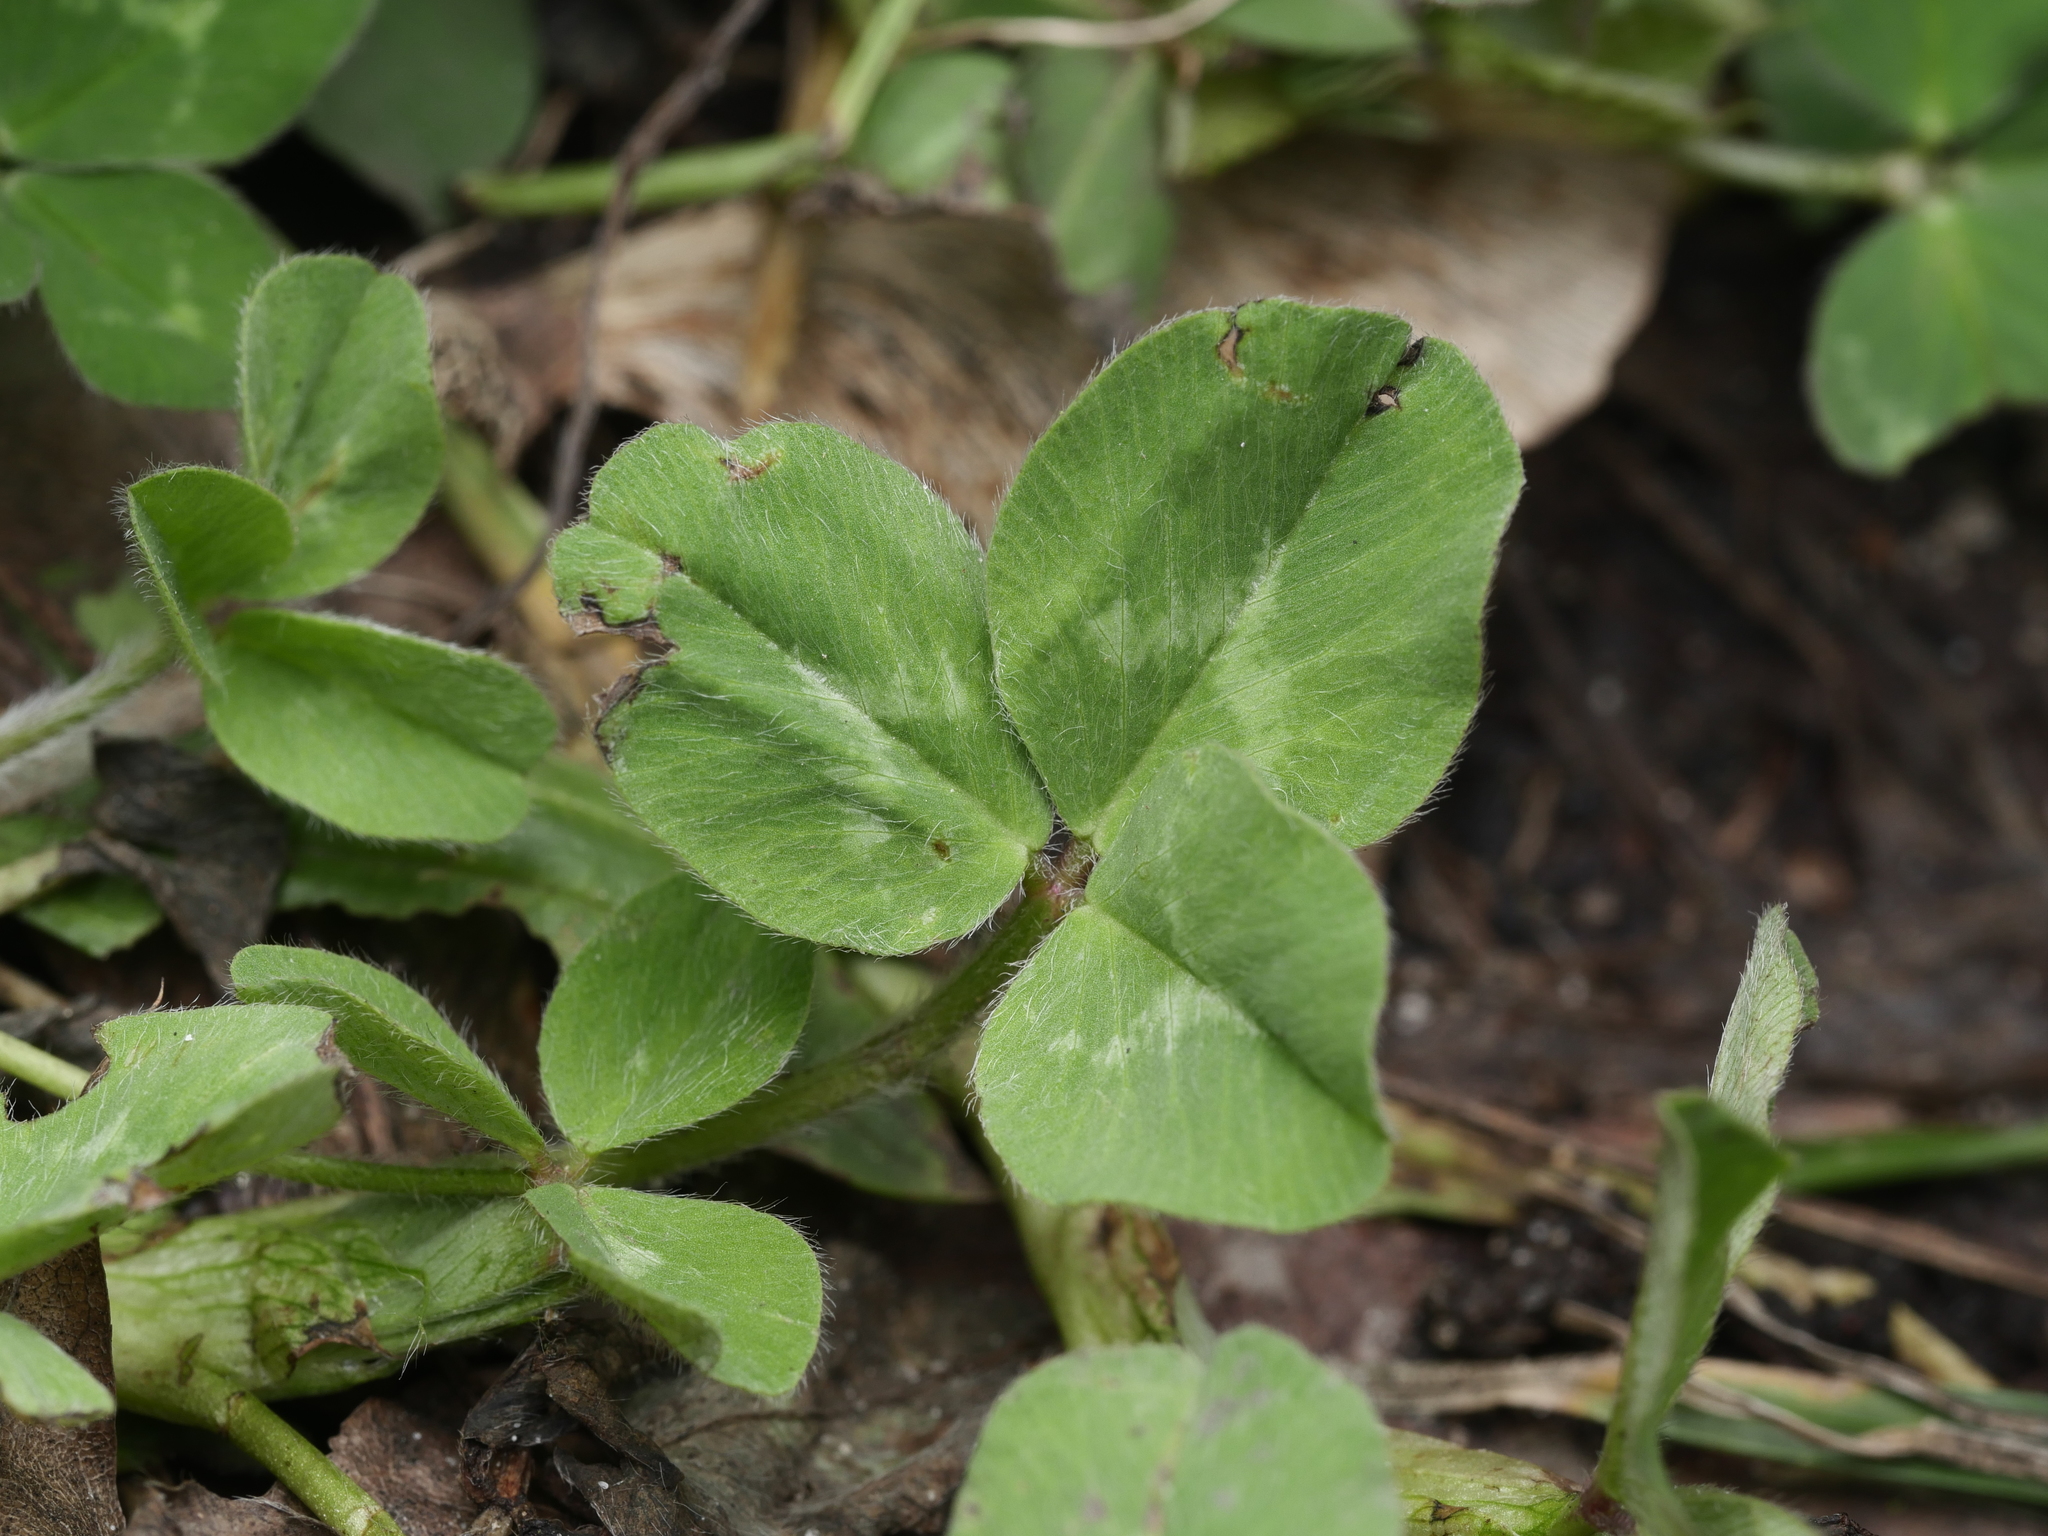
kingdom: Plantae
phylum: Tracheophyta
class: Magnoliopsida
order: Fabales
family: Fabaceae
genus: Trifolium
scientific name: Trifolium pratense
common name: Red clover
